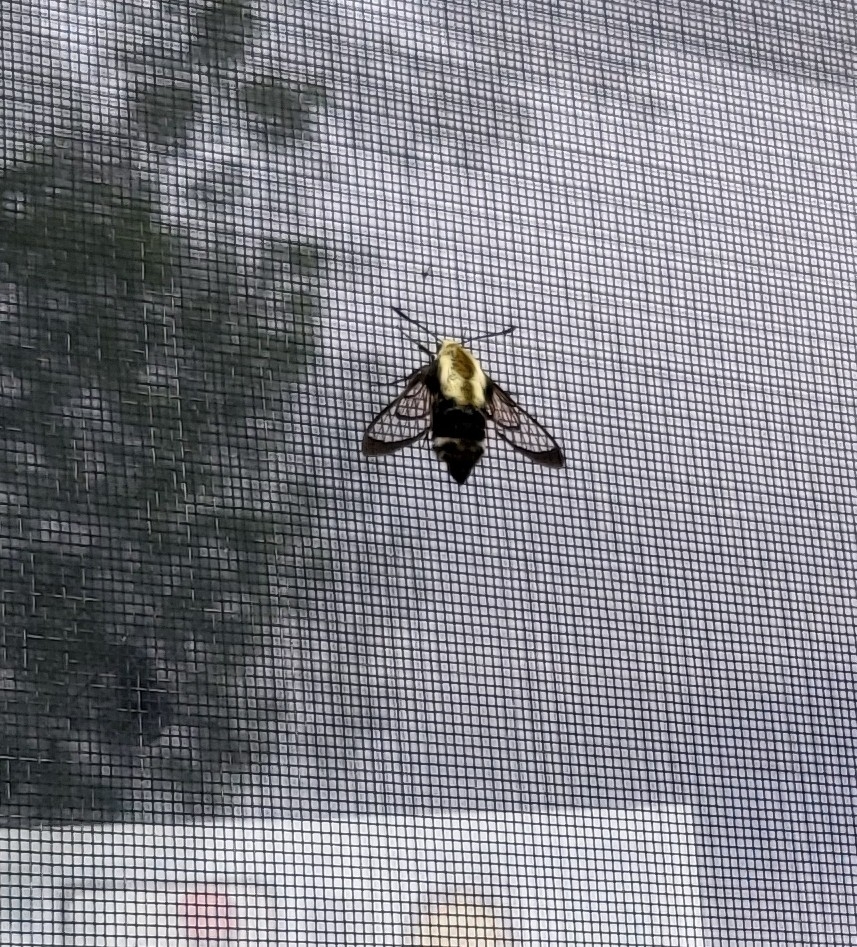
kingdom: Animalia
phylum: Arthropoda
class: Insecta
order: Lepidoptera
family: Sphingidae
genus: Hemaris
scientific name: Hemaris diffinis
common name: Bumblebee moth
